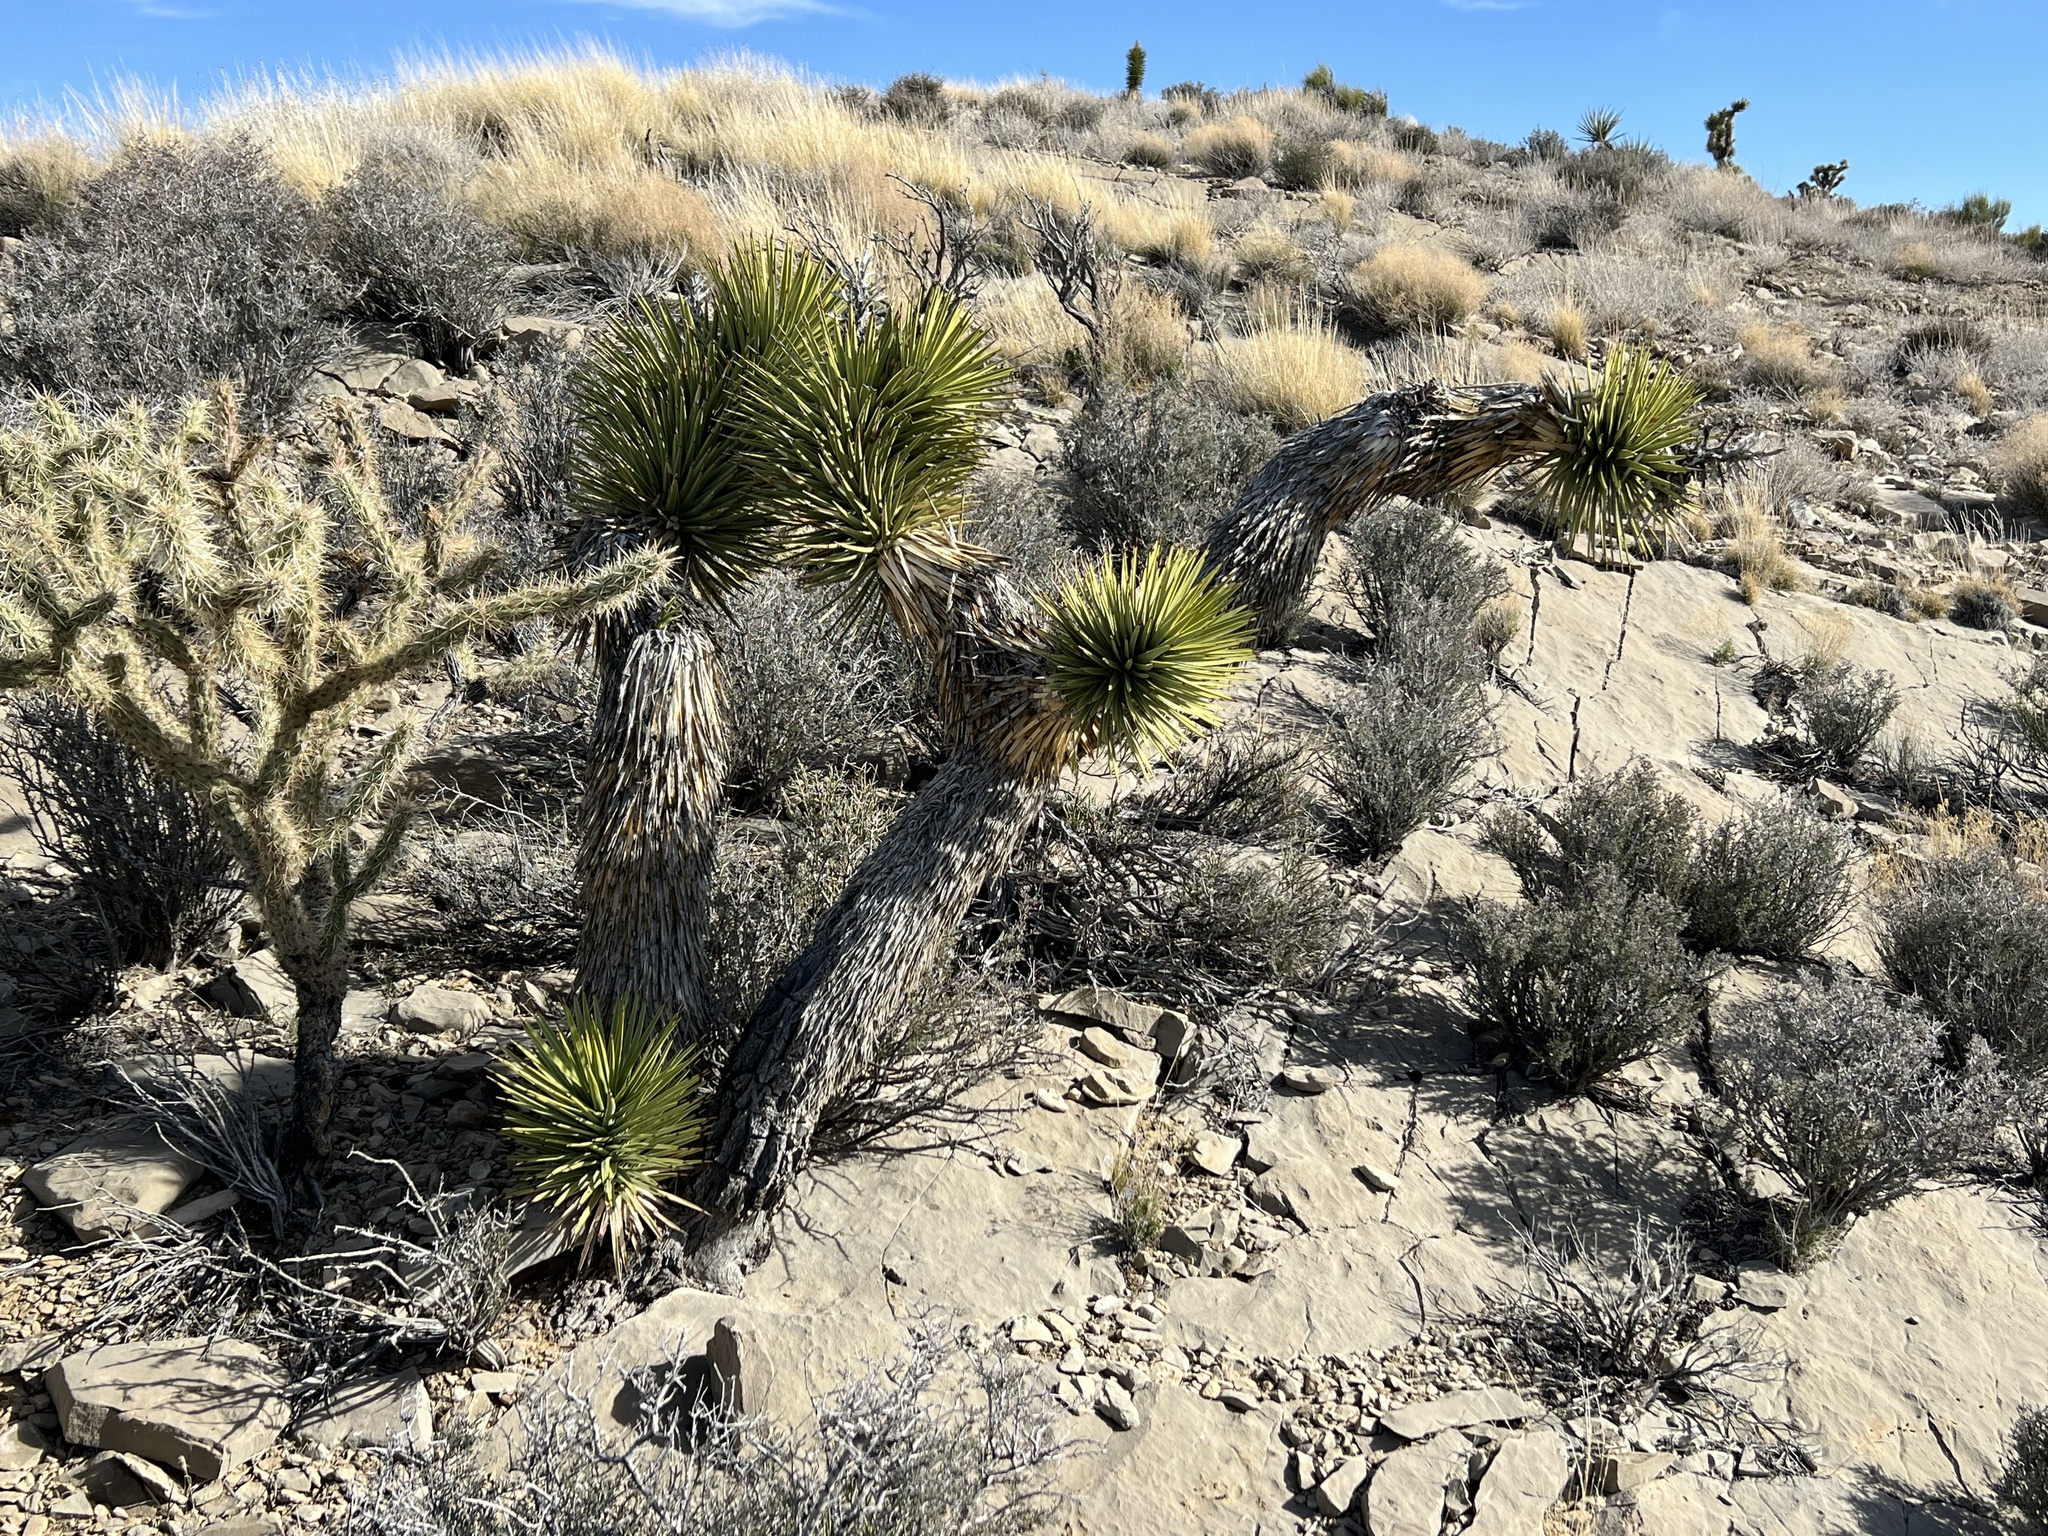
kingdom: Plantae
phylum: Tracheophyta
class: Liliopsida
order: Asparagales
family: Asparagaceae
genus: Yucca
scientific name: Yucca brevifolia
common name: Joshua tree
